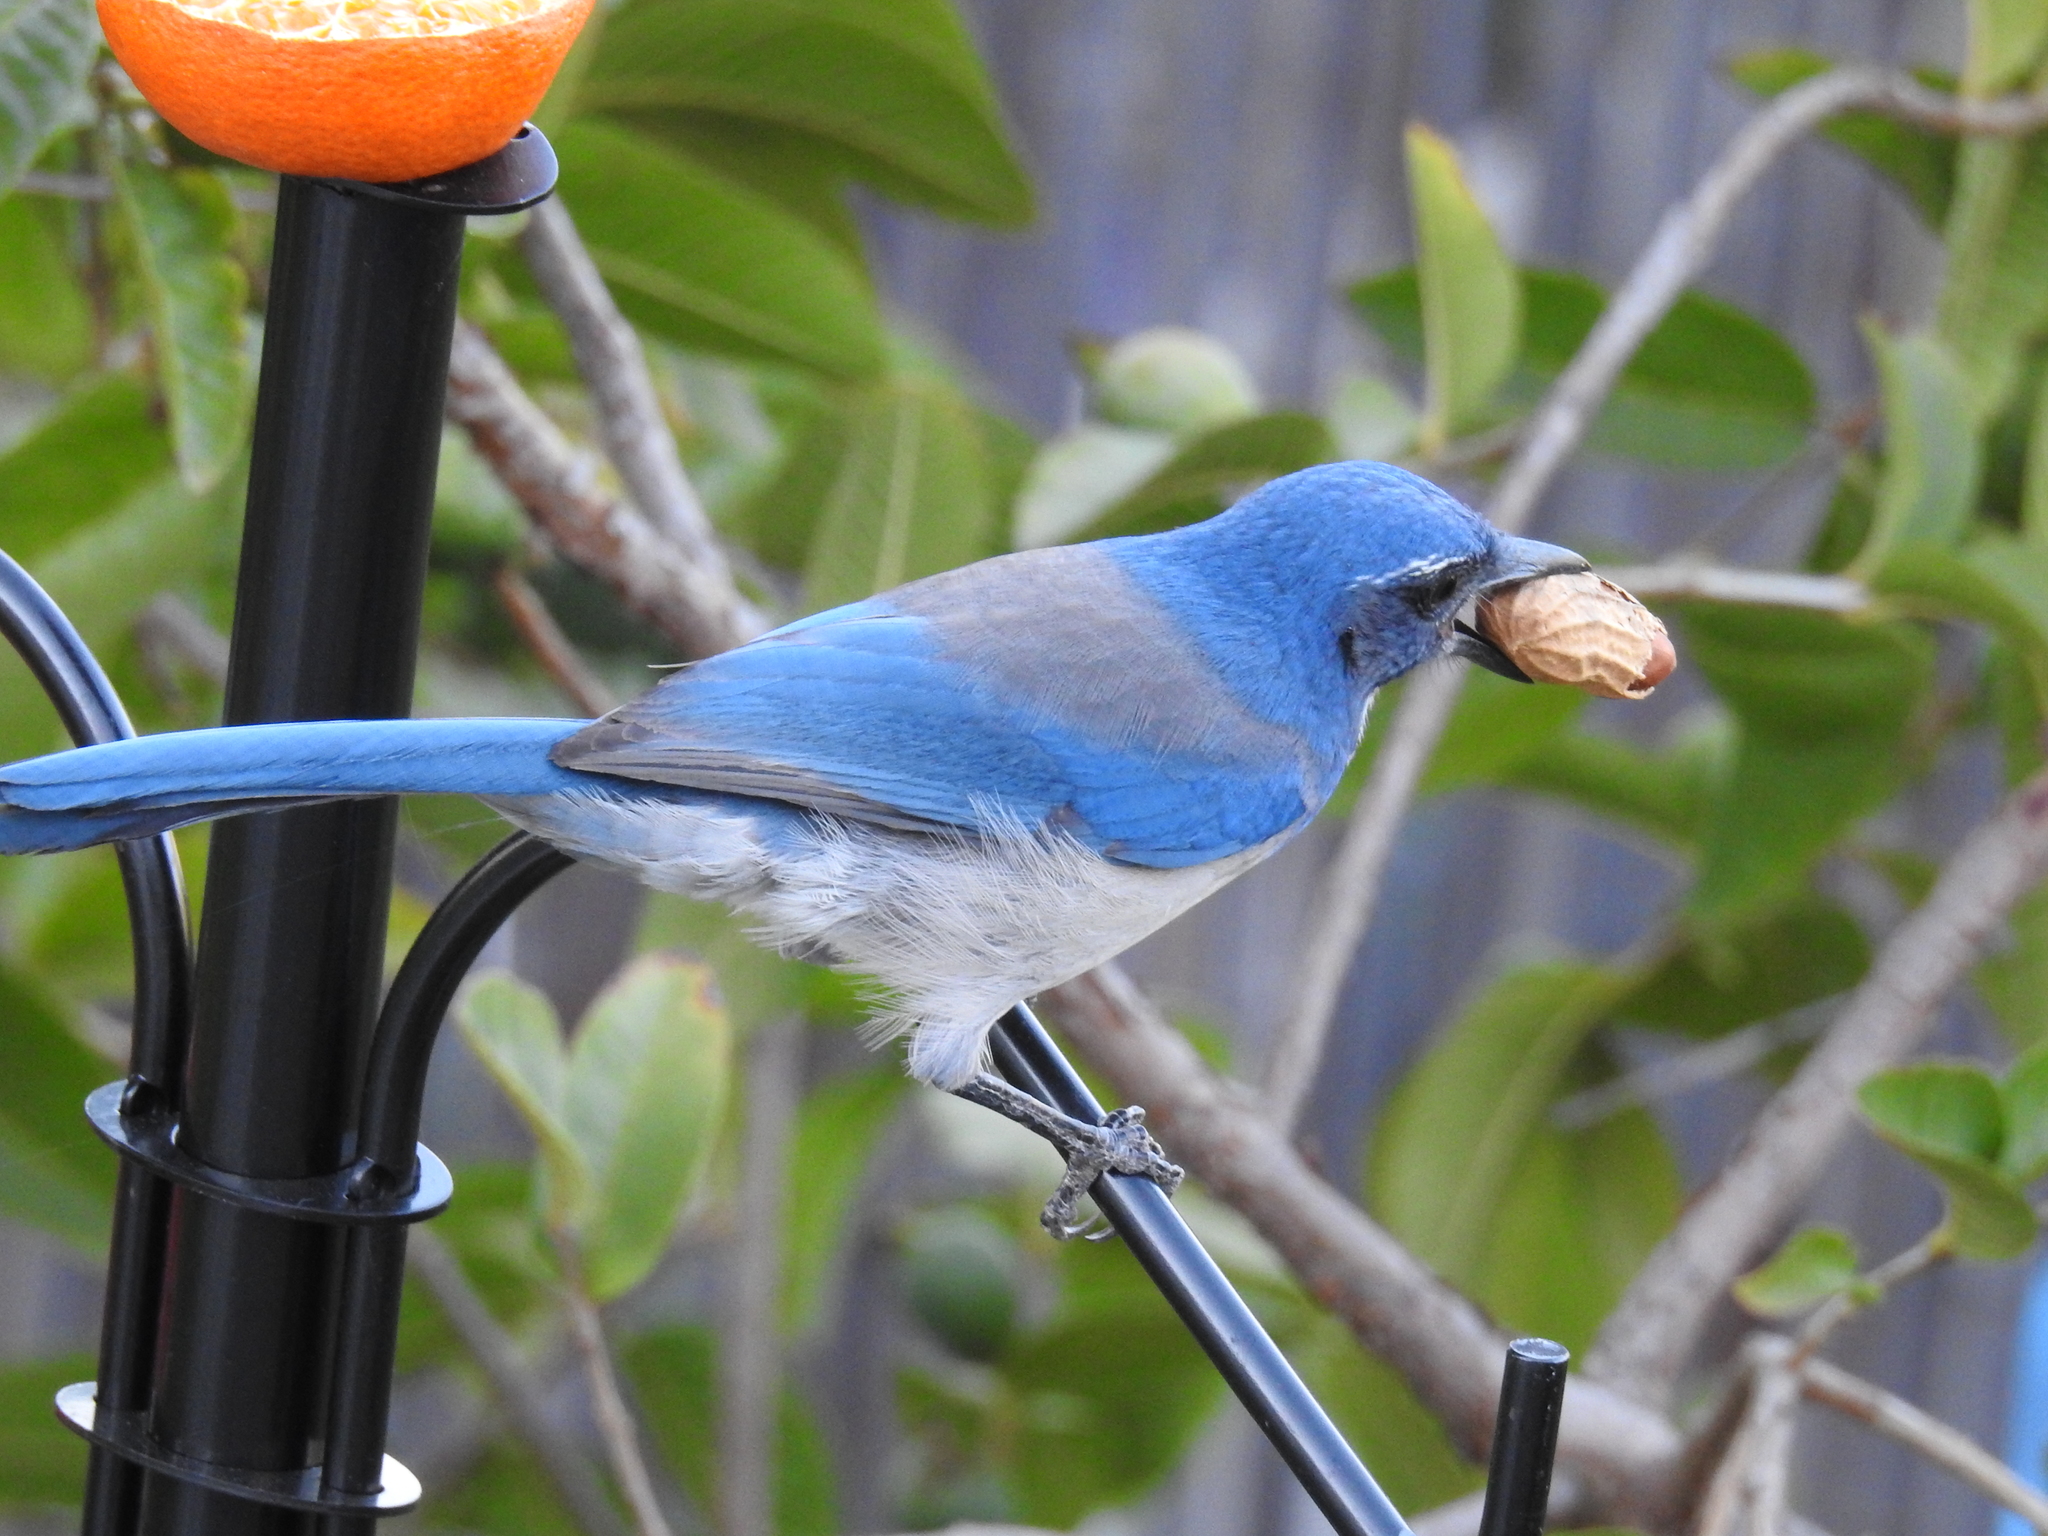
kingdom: Animalia
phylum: Chordata
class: Aves
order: Passeriformes
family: Corvidae
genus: Aphelocoma
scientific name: Aphelocoma californica
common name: California scrub-jay
